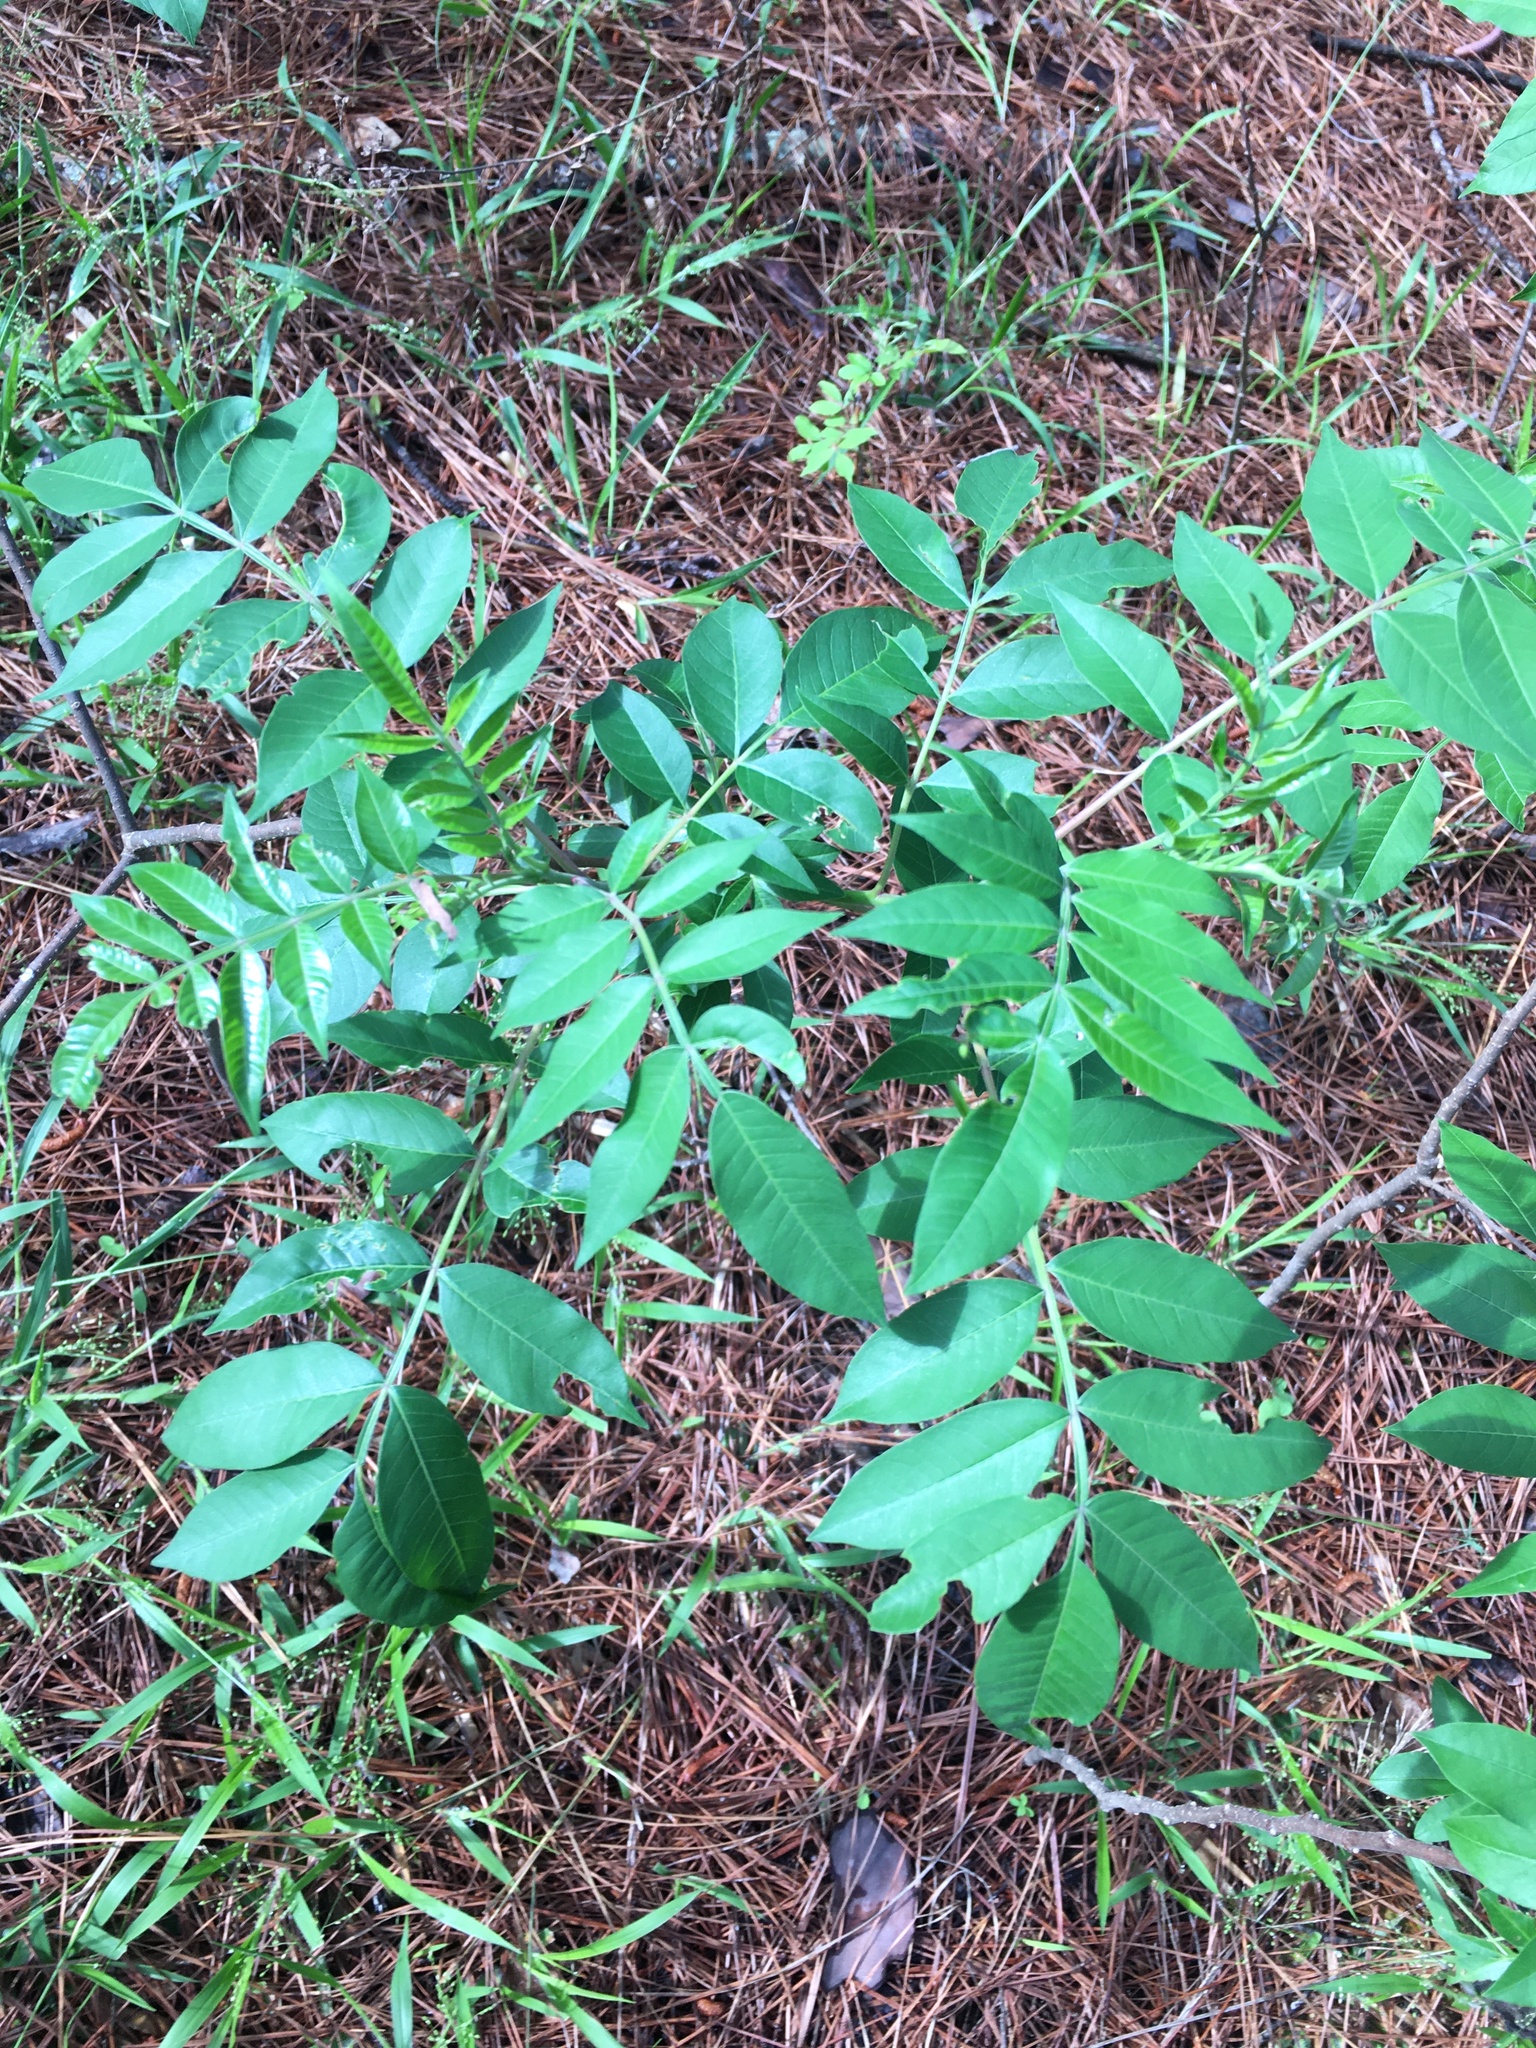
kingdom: Plantae
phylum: Tracheophyta
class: Magnoliopsida
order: Sapindales
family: Anacardiaceae
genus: Rhus
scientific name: Rhus copallina
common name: Shining sumac
